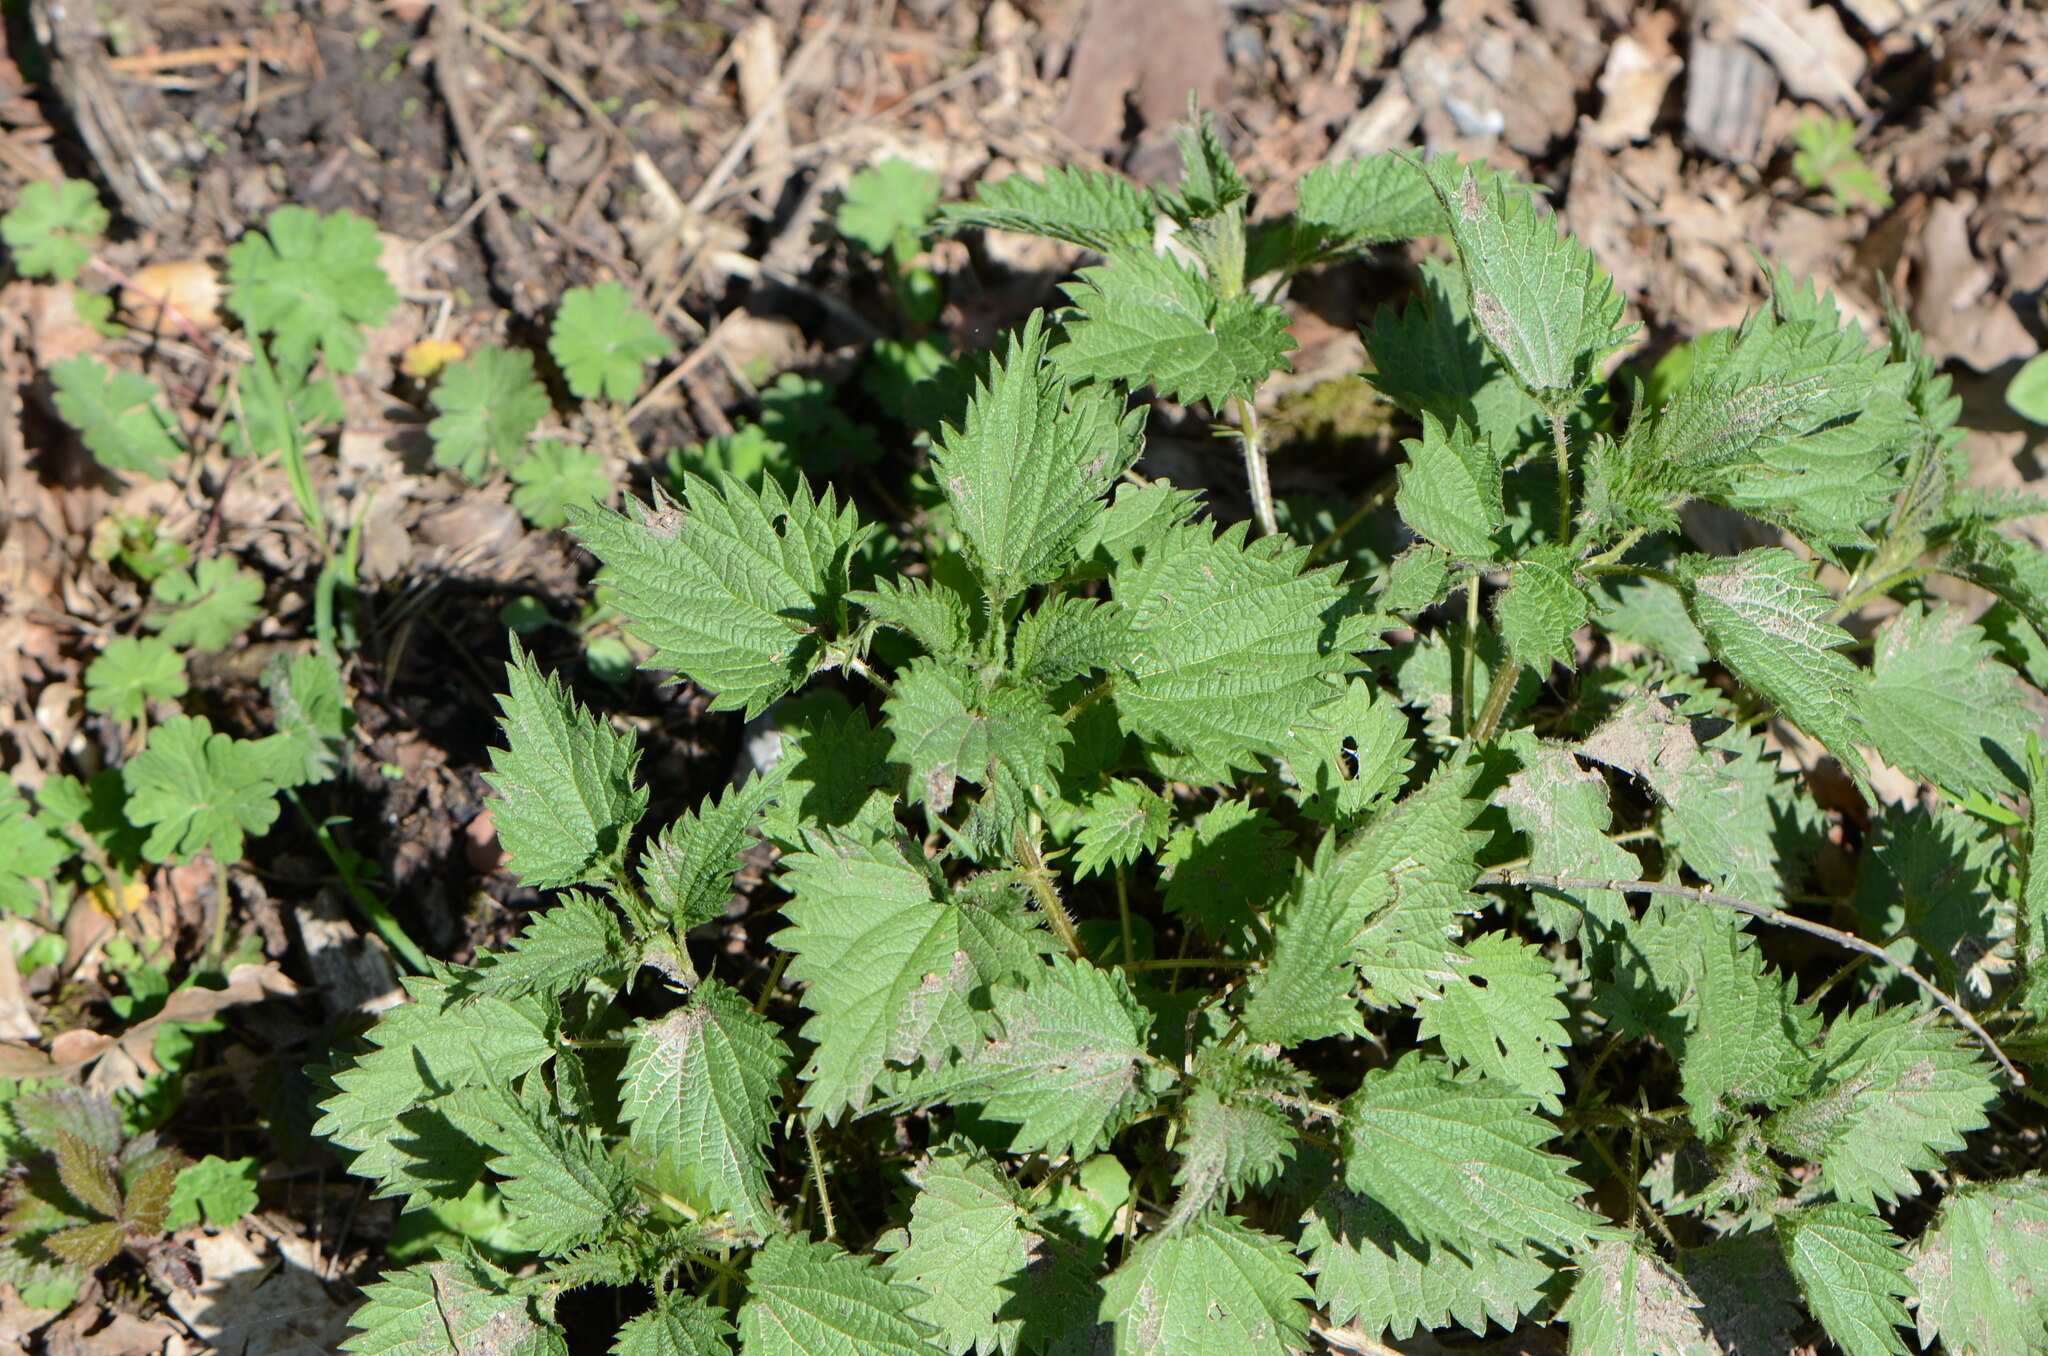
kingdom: Plantae
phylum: Tracheophyta
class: Magnoliopsida
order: Rosales
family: Urticaceae
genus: Urtica
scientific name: Urtica dioica
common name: Common nettle
